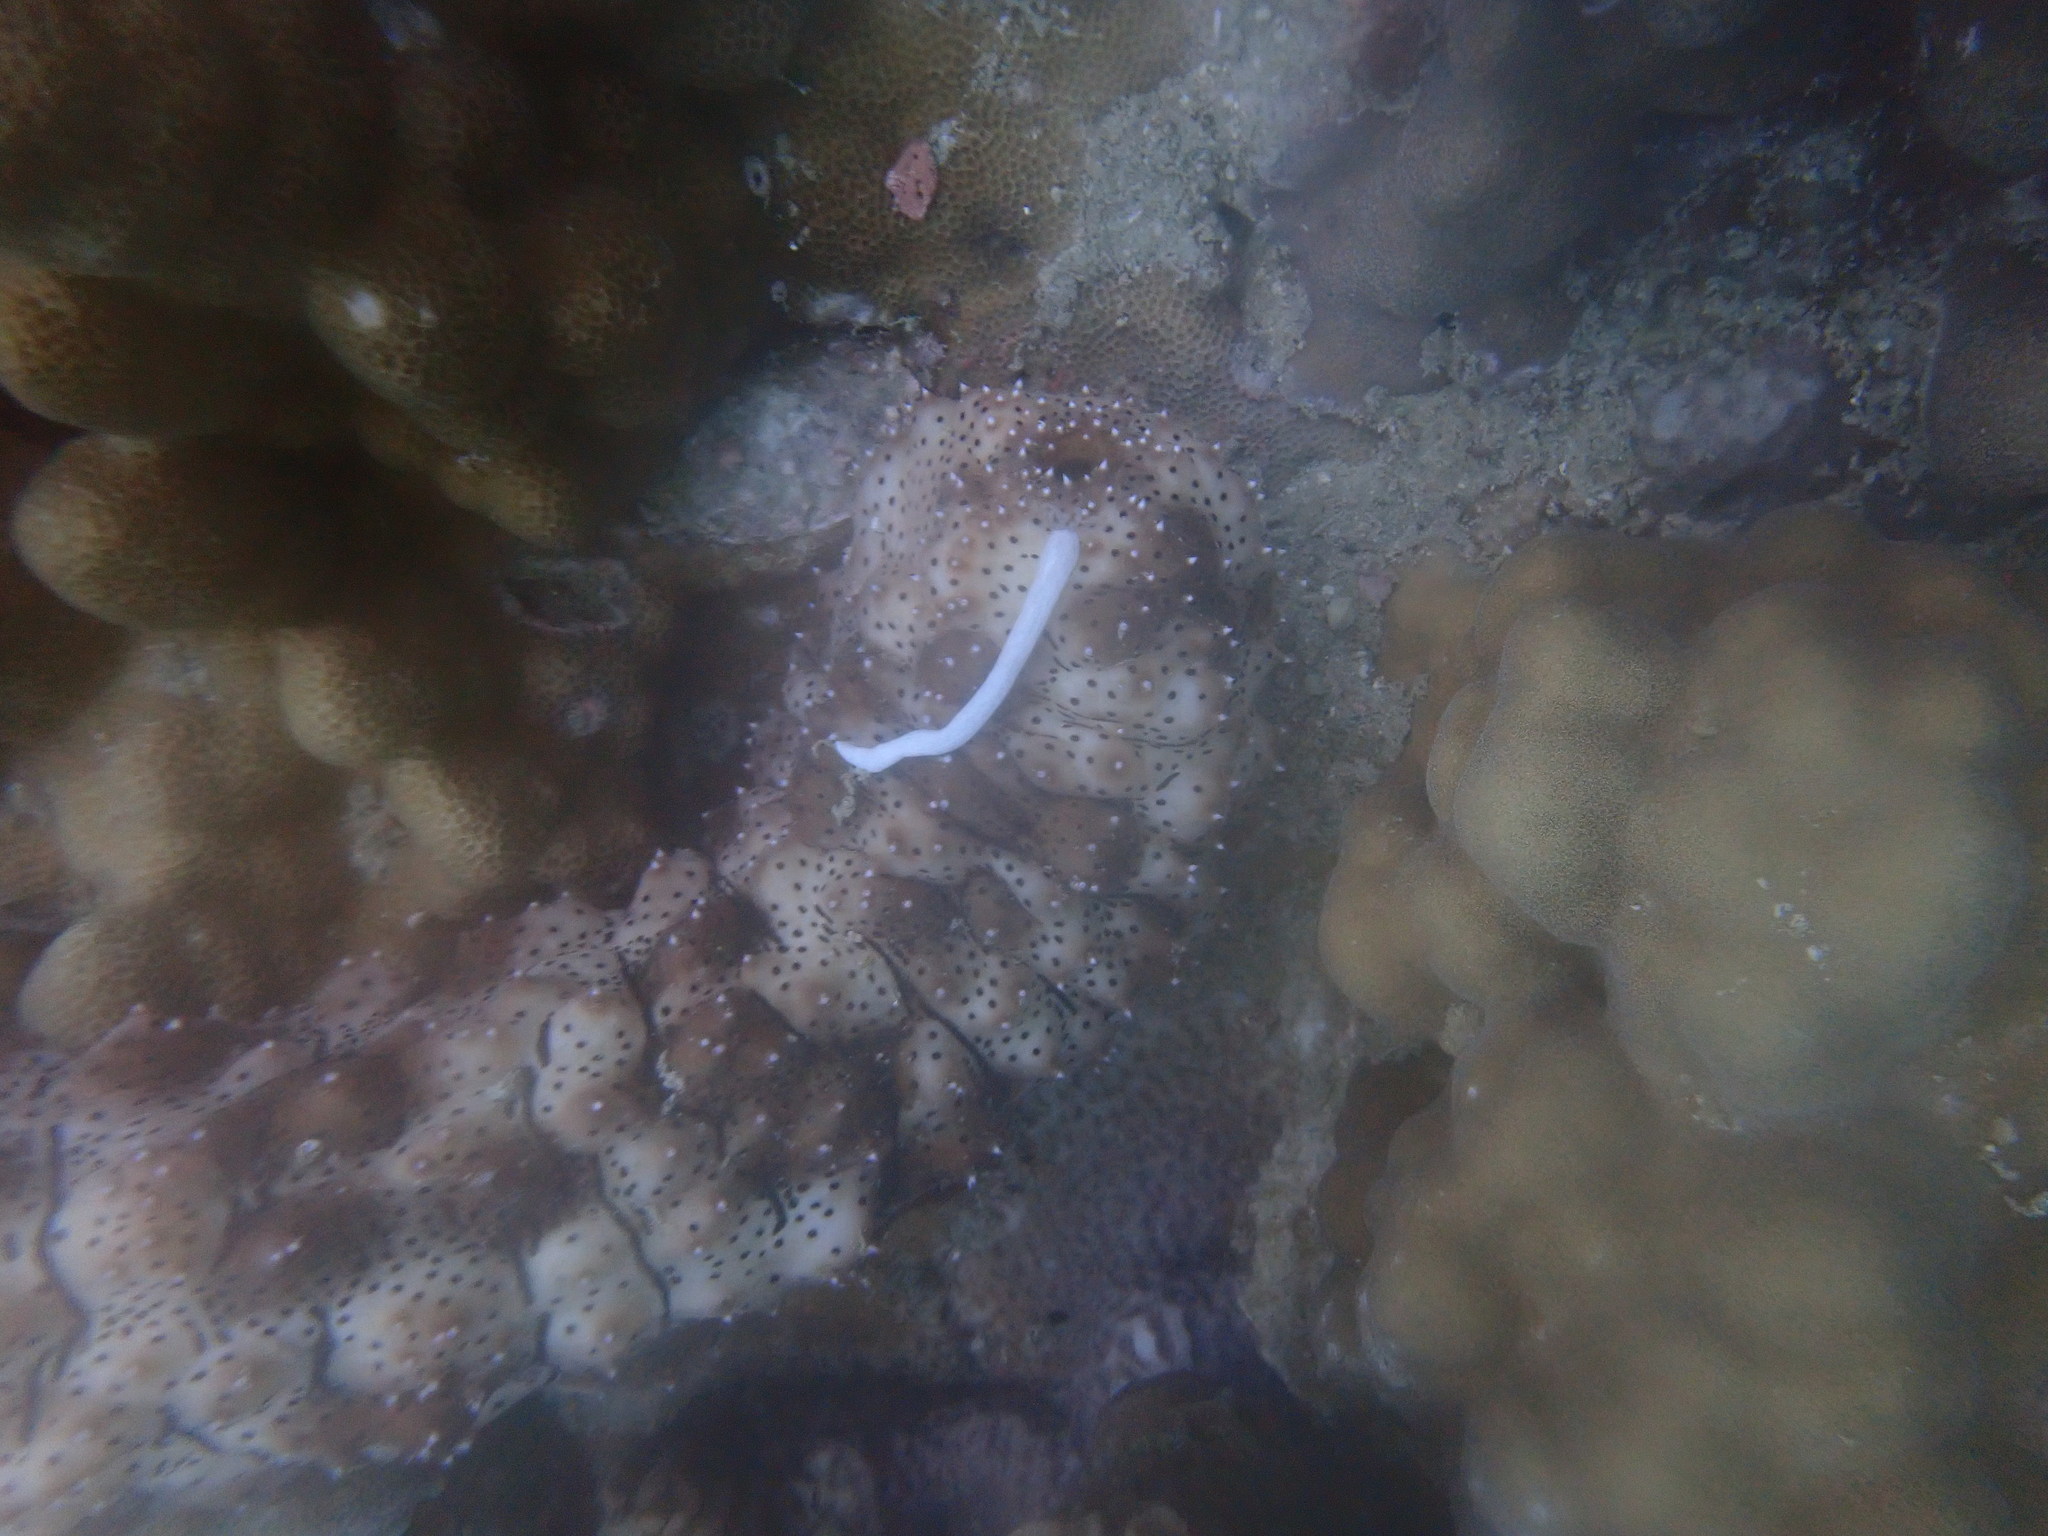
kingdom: Animalia
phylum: Echinodermata
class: Holothuroidea
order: Holothuriida
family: Holothuriidae
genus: Pearsonothuria
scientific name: Pearsonothuria graeffei
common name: Blackspotted sea cucumber
